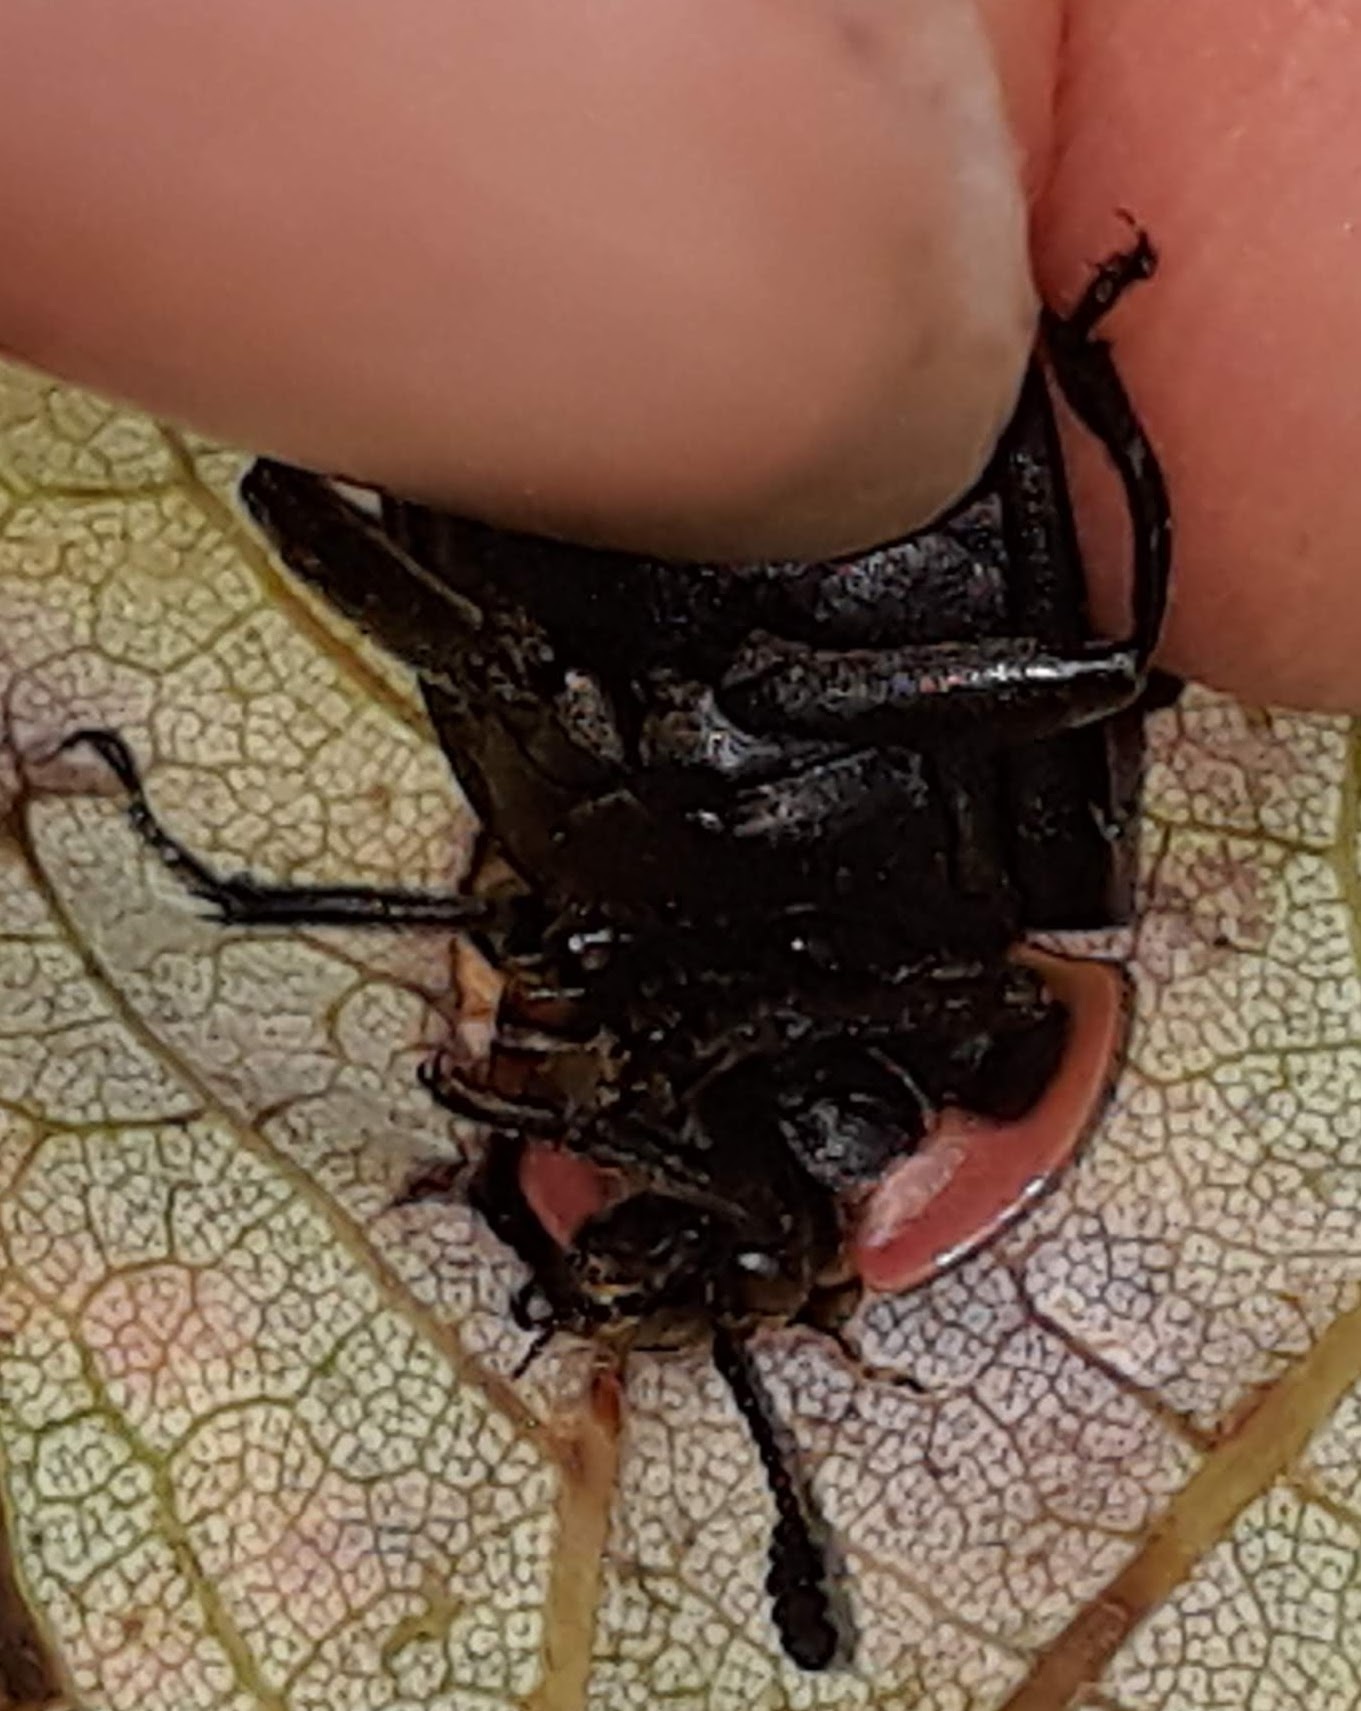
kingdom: Animalia
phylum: Arthropoda
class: Insecta
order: Coleoptera
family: Staphylinidae
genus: Oiceoptoma
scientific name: Oiceoptoma noveboracense
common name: Margined carrion beetle
